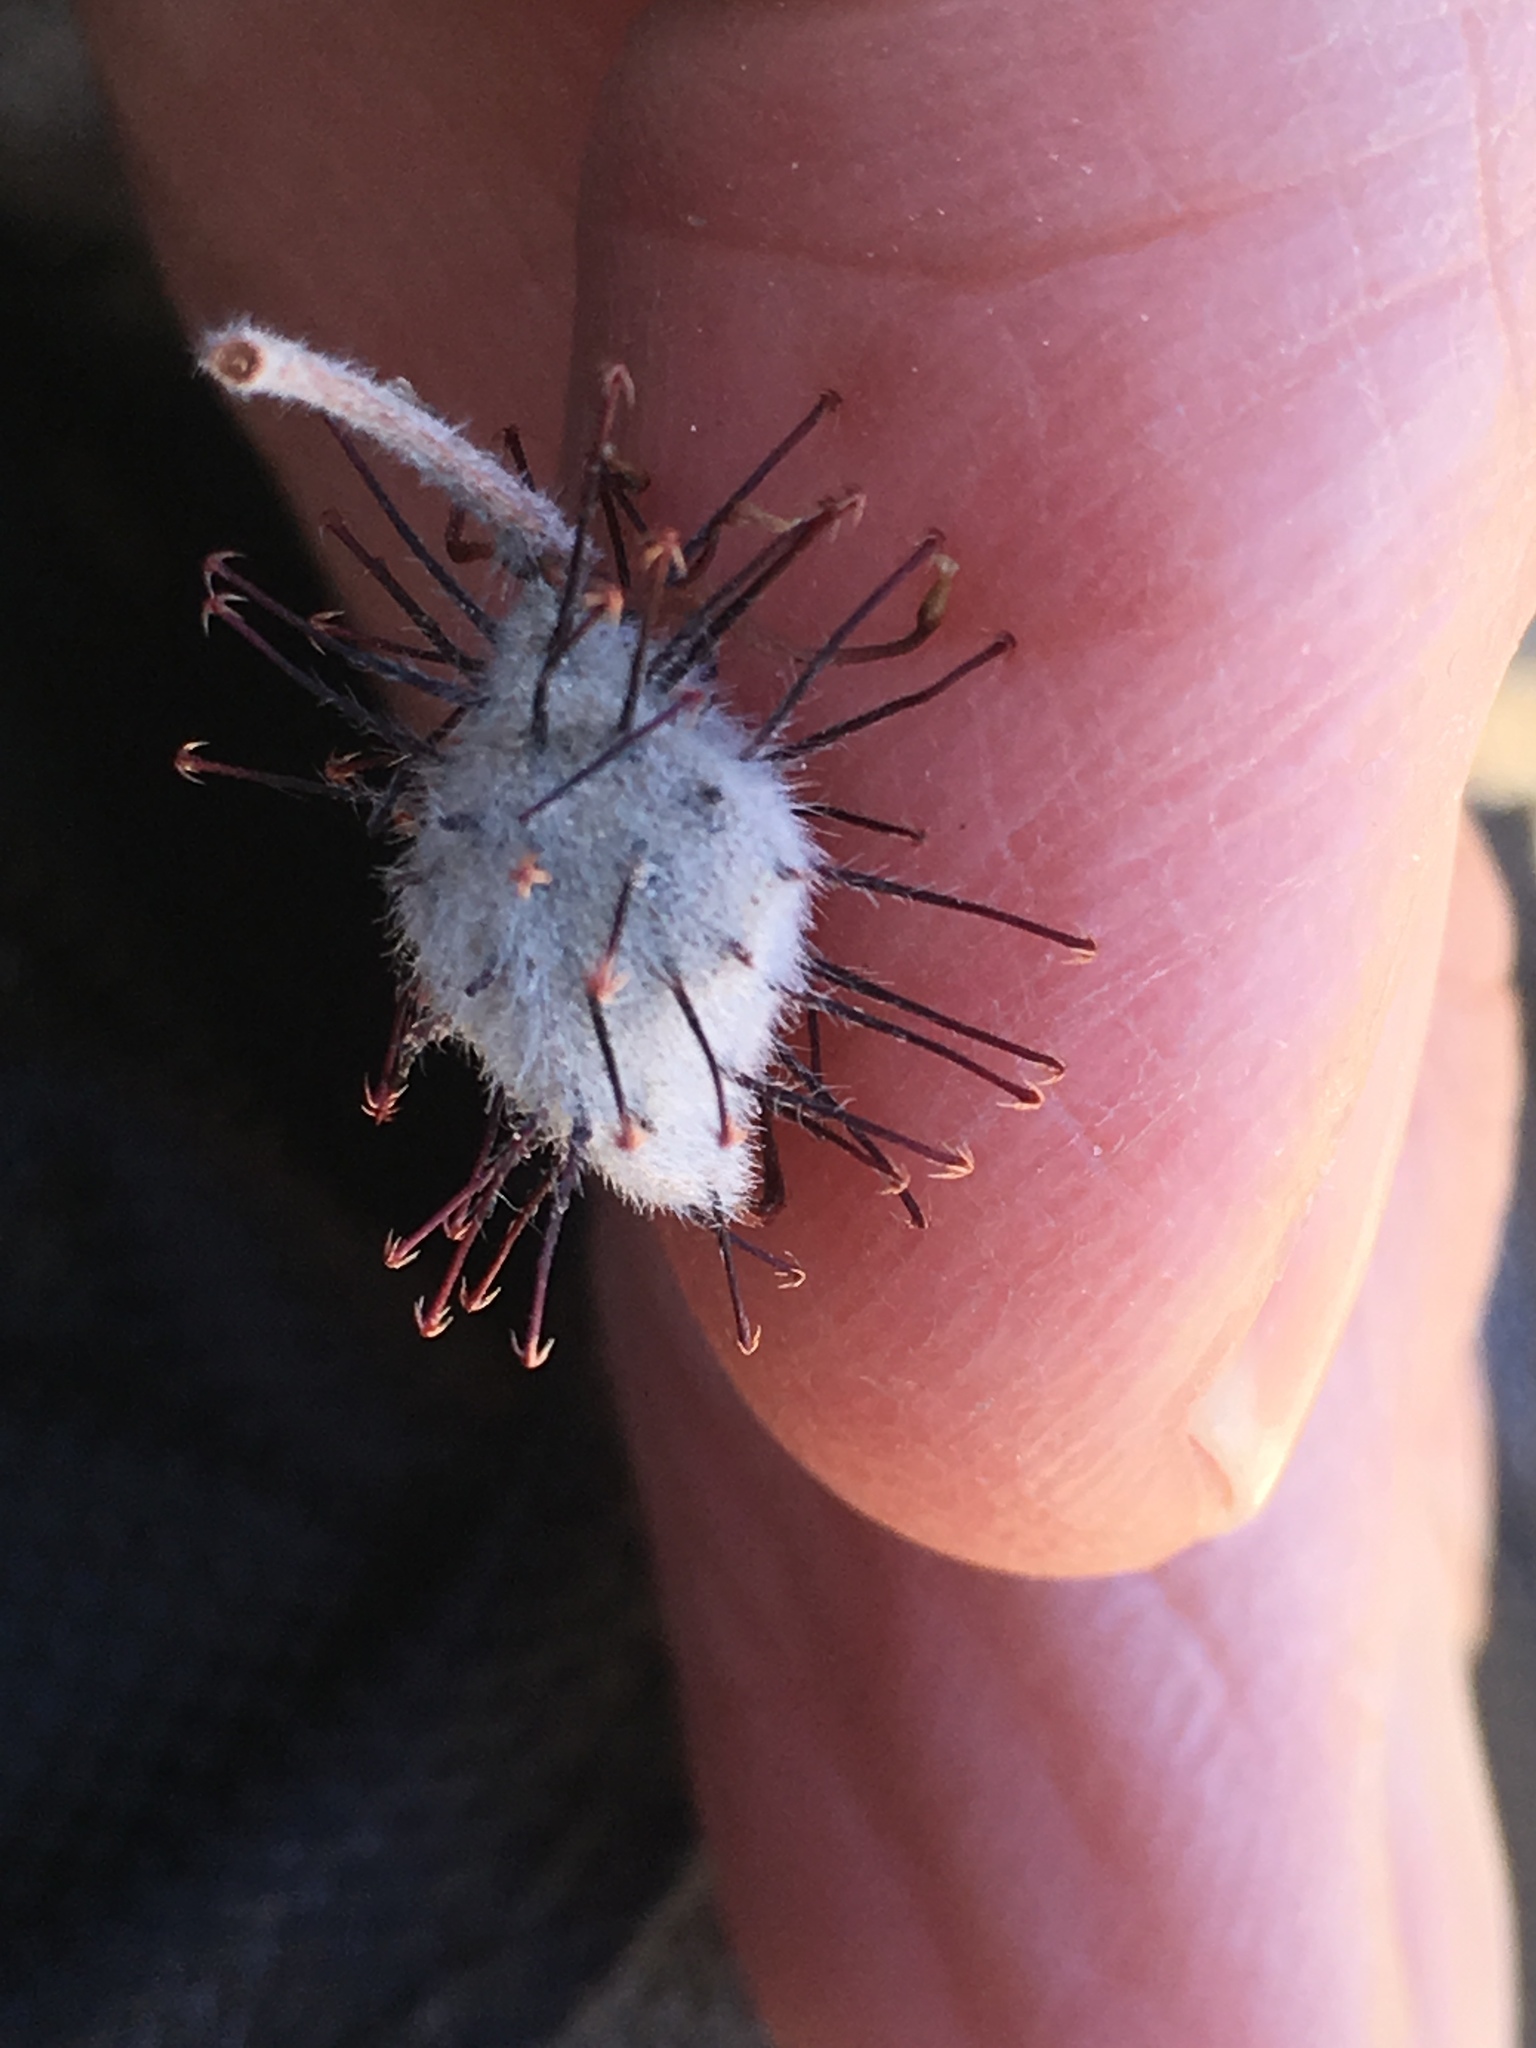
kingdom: Plantae
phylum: Tracheophyta
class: Magnoliopsida
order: Zygophyllales
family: Krameriaceae
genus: Krameria
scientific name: Krameria bicolor
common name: White ratany
